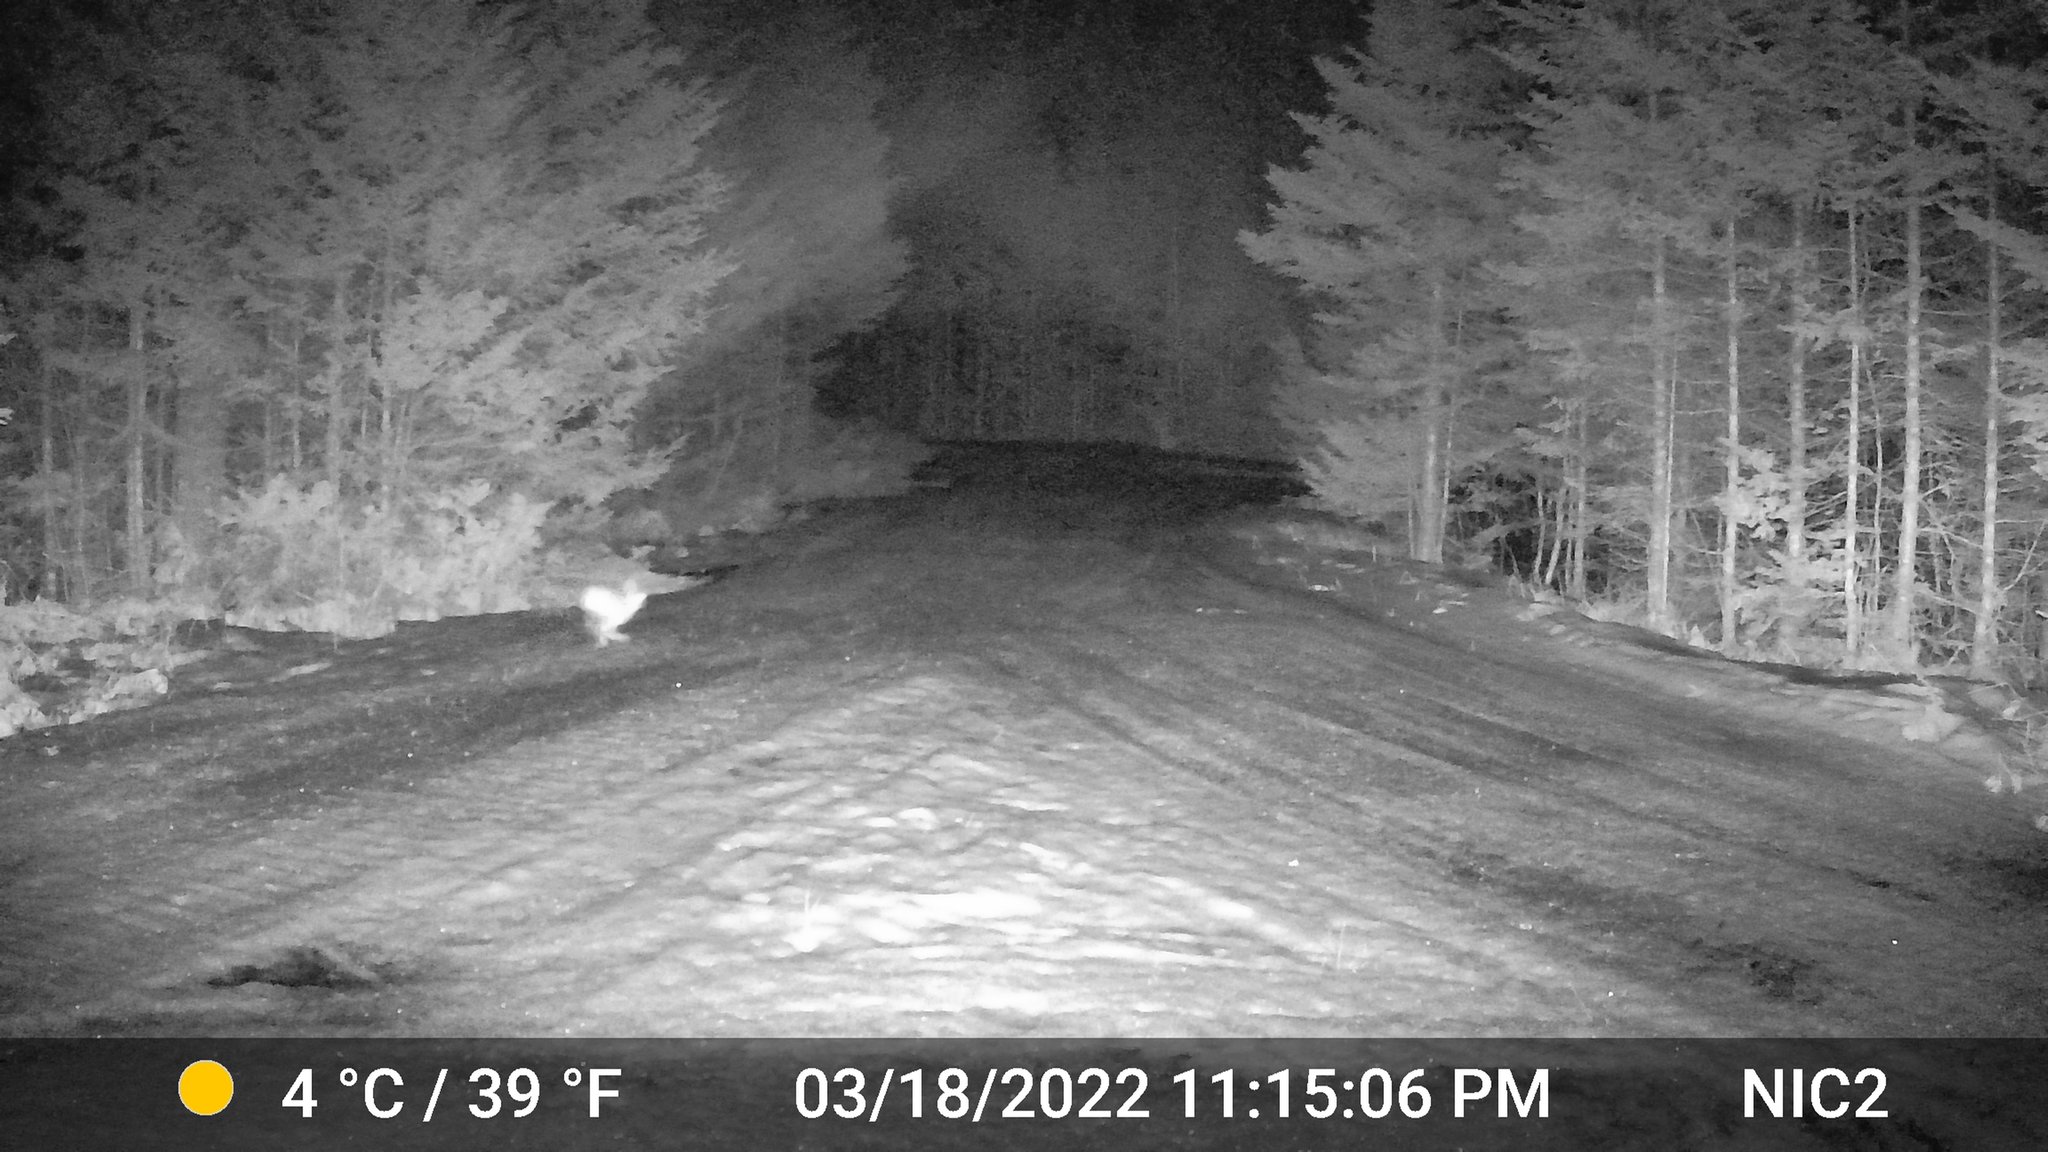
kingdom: Animalia
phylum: Chordata
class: Mammalia
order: Lagomorpha
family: Leporidae
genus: Lepus
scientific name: Lepus americanus
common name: Snowshoe hare
